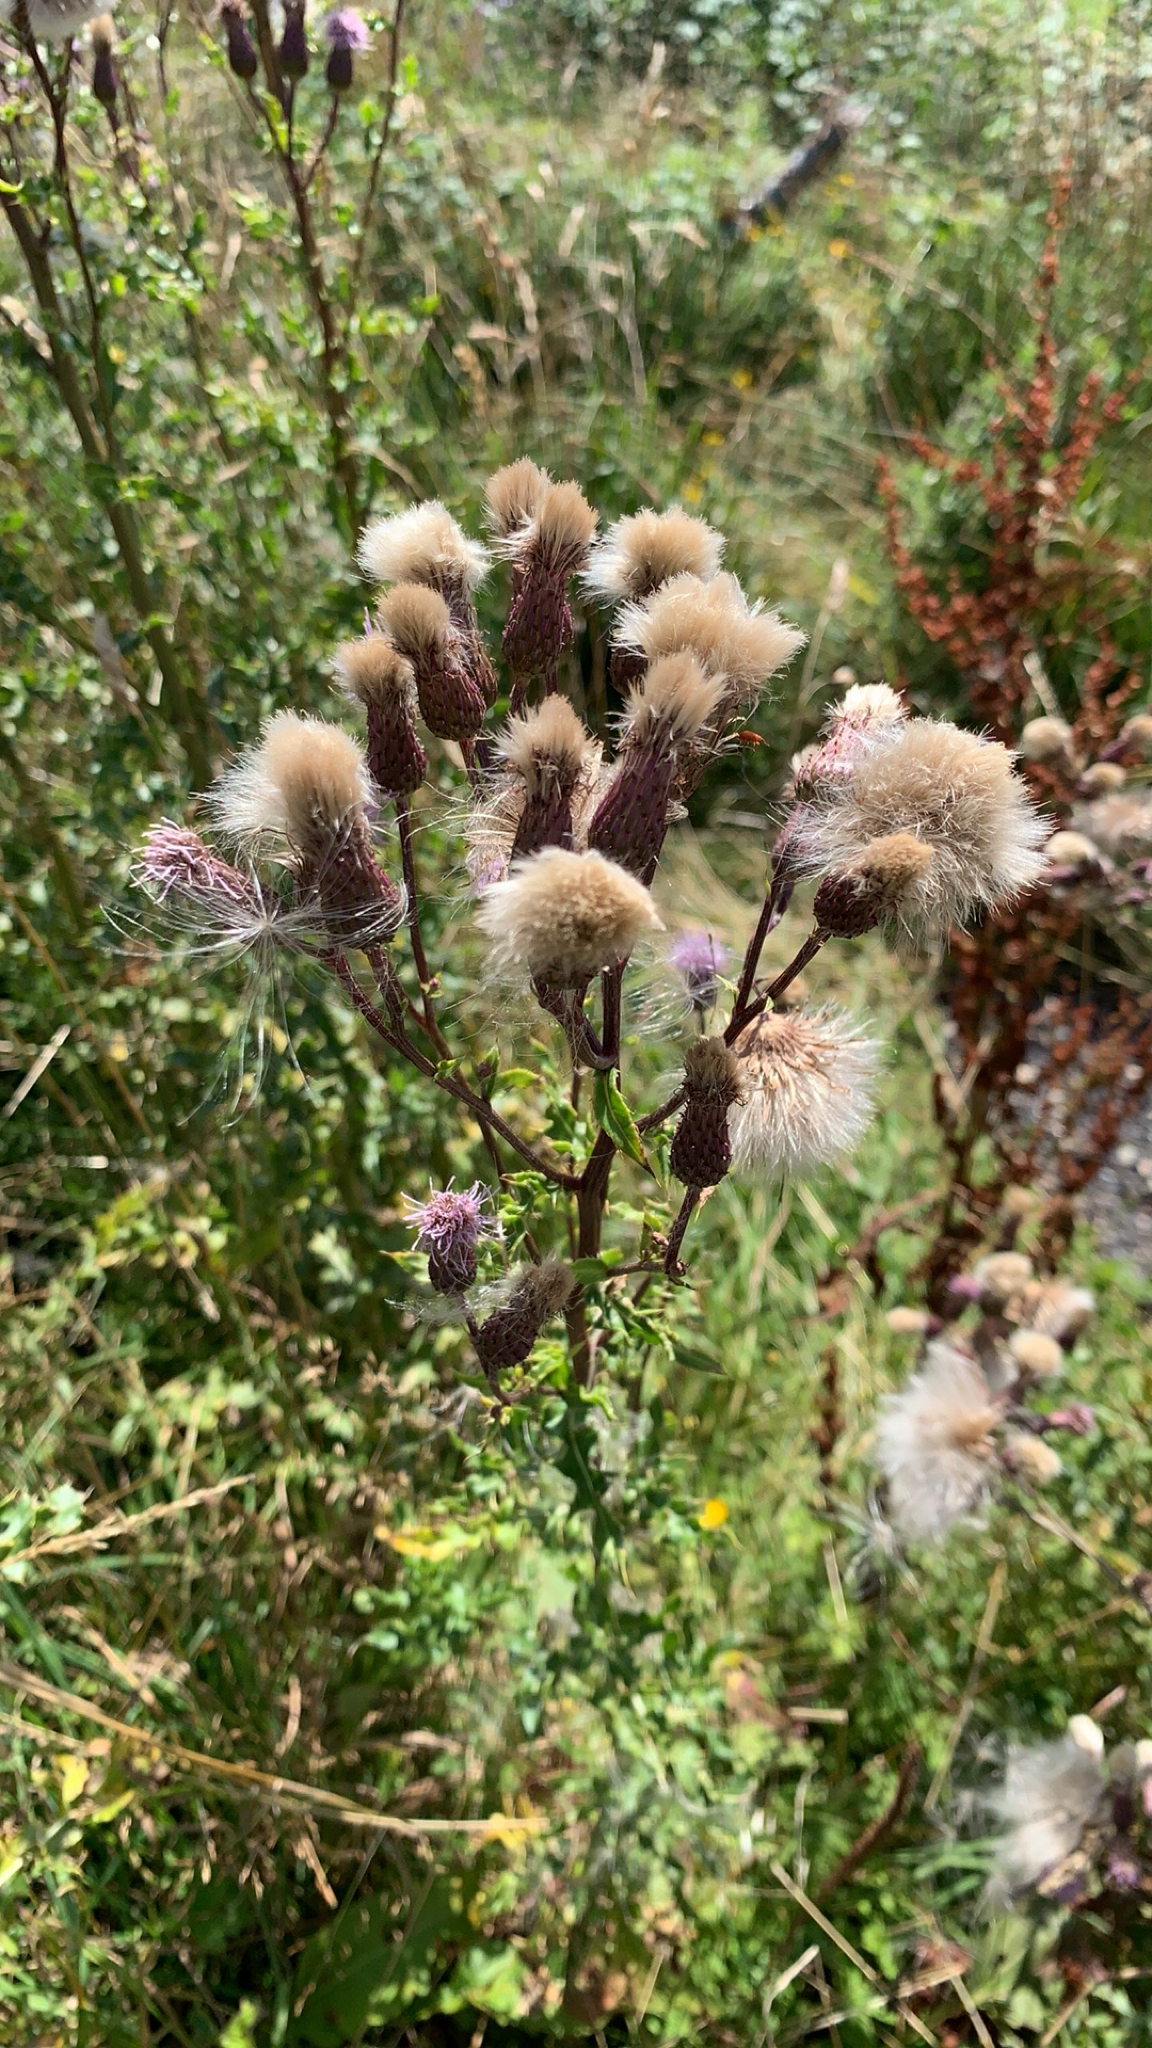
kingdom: Plantae
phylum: Tracheophyta
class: Magnoliopsida
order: Asterales
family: Asteraceae
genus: Cirsium
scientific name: Cirsium arvense
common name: Creeping thistle
